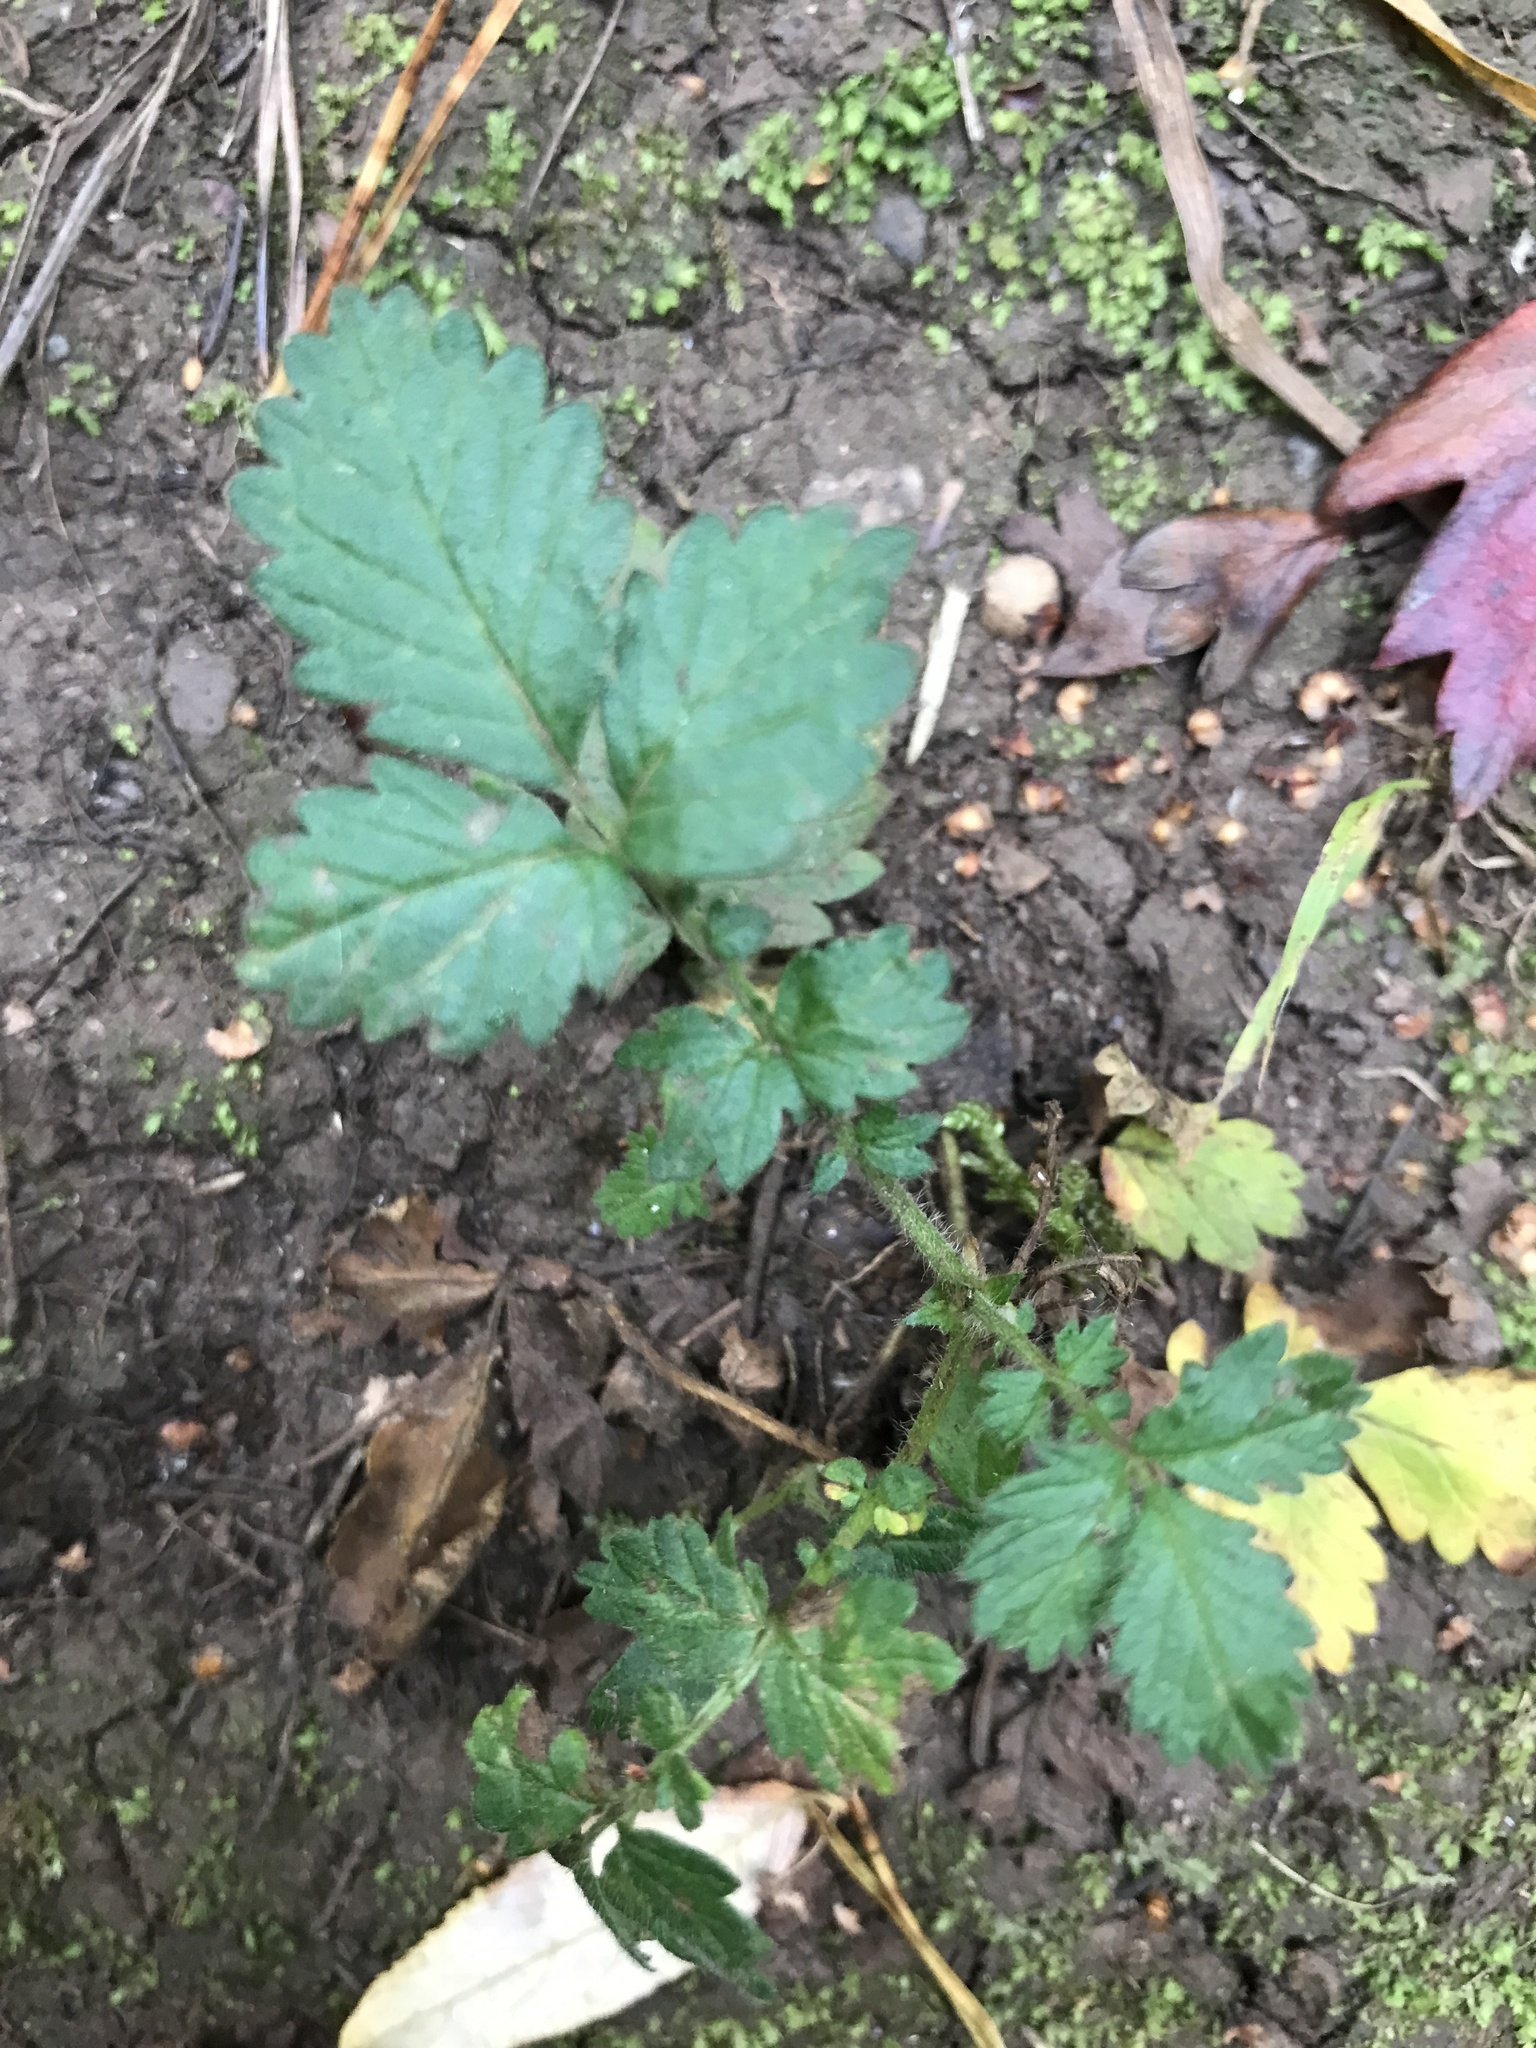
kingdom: Plantae
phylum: Tracheophyta
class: Magnoliopsida
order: Rosales
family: Rosaceae
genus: Agrimonia
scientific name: Agrimonia eupatoria
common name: Agrimony
